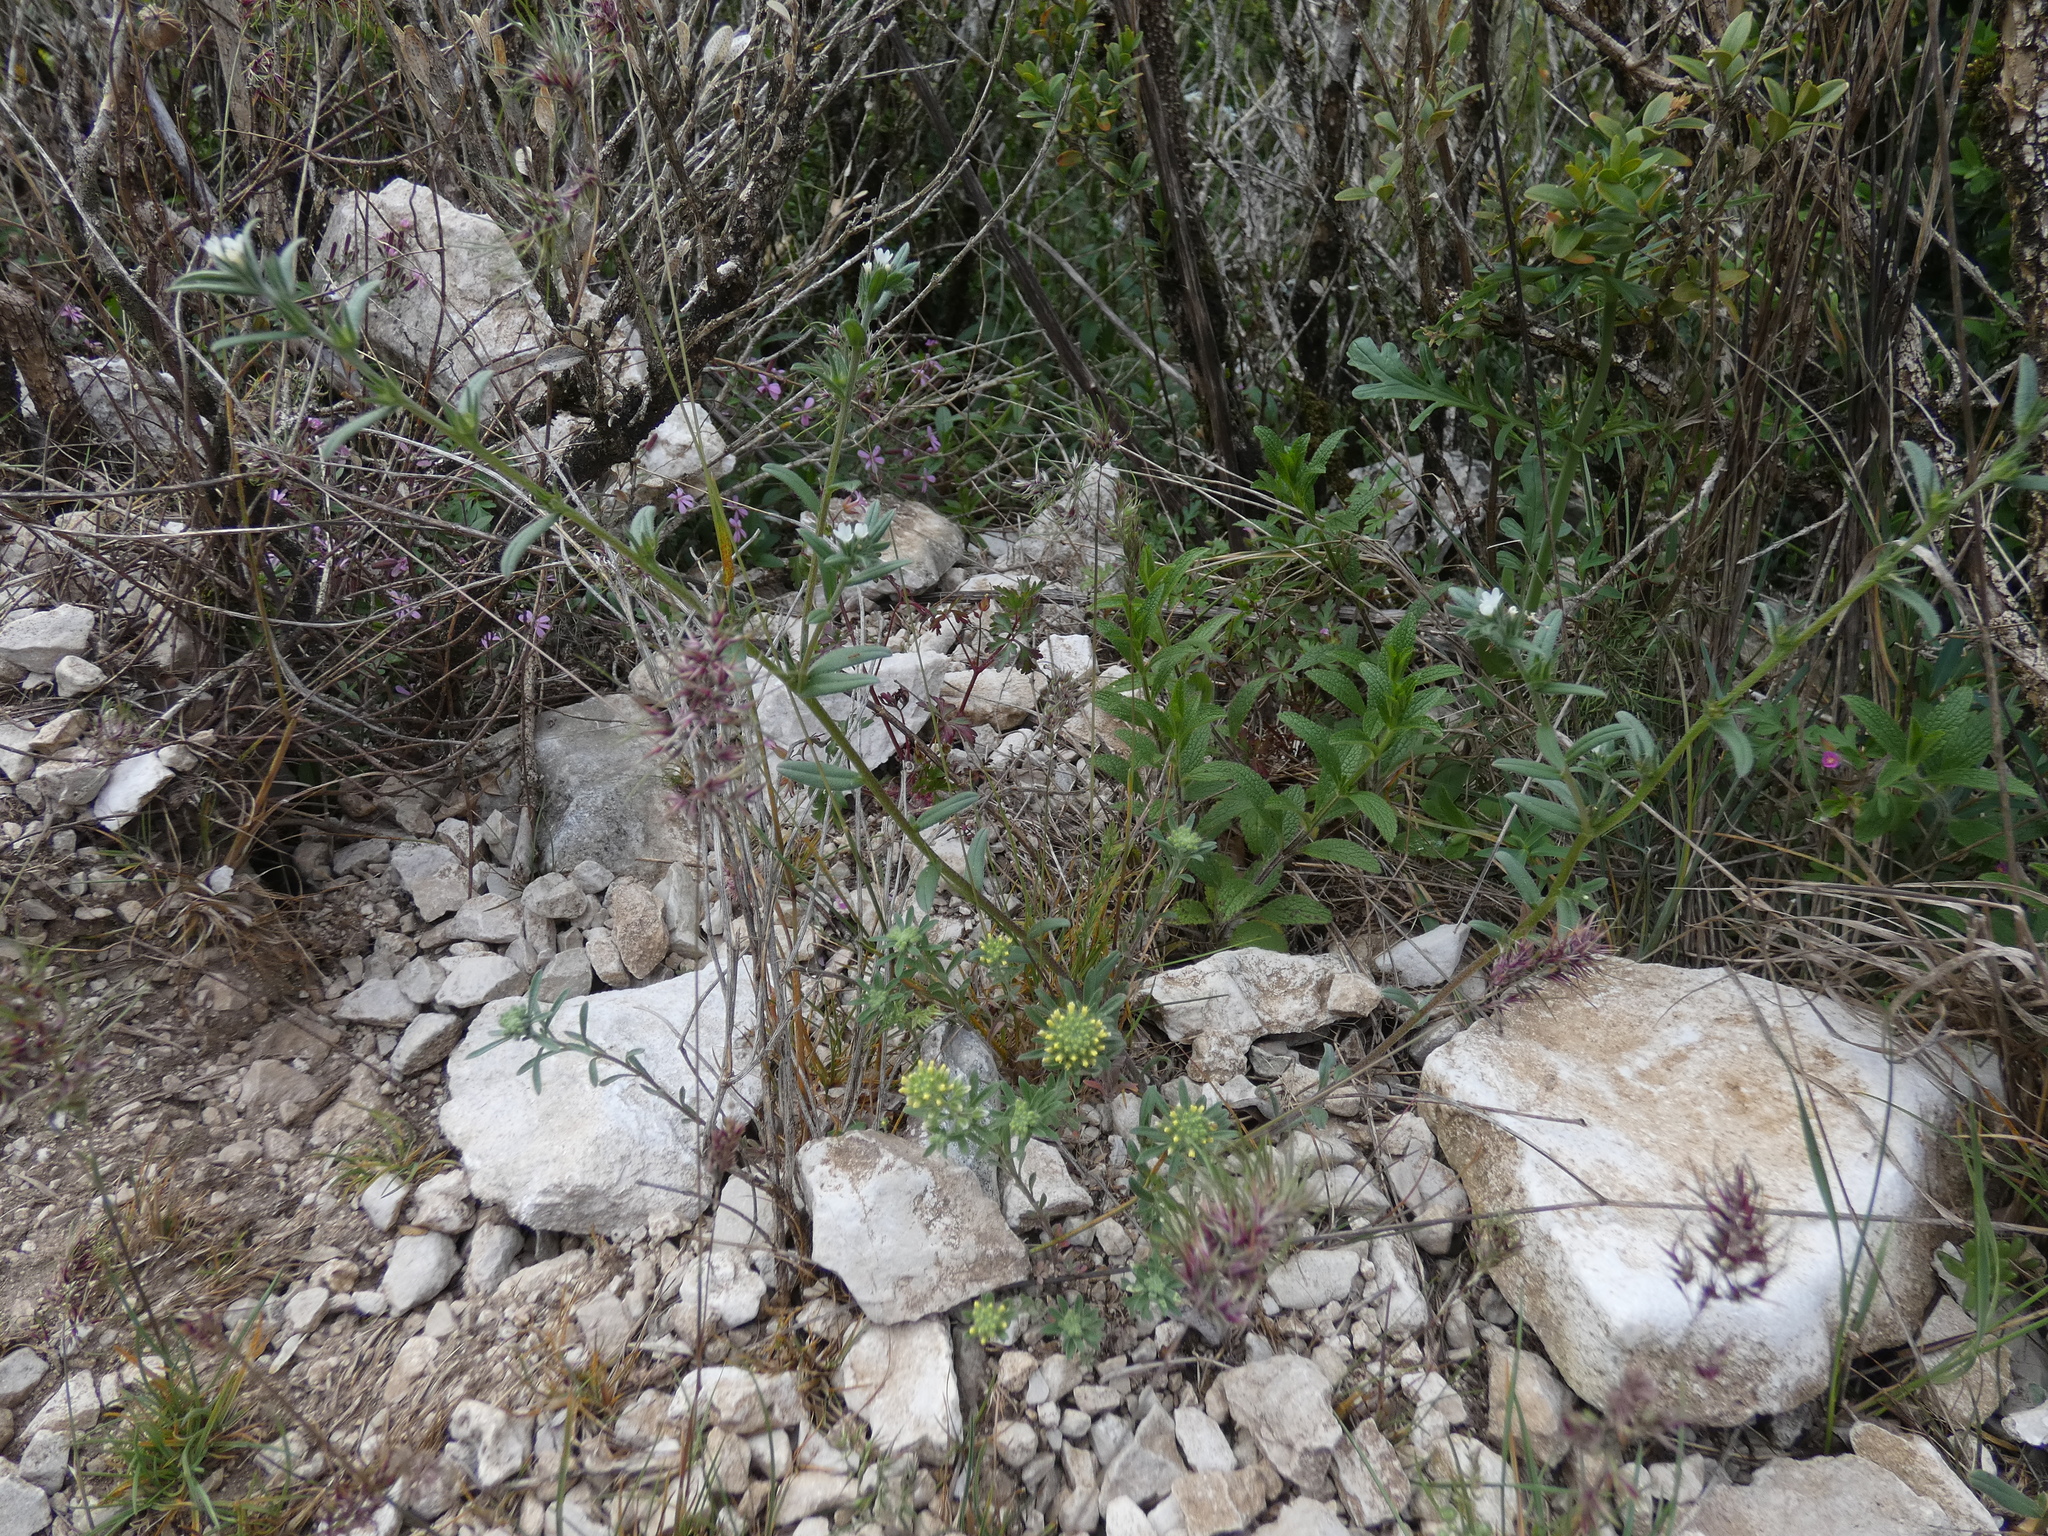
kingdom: Plantae
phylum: Tracheophyta
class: Magnoliopsida
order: Boraginales
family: Boraginaceae
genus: Buglossoides
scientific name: Buglossoides arvensis
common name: Corn gromwell
